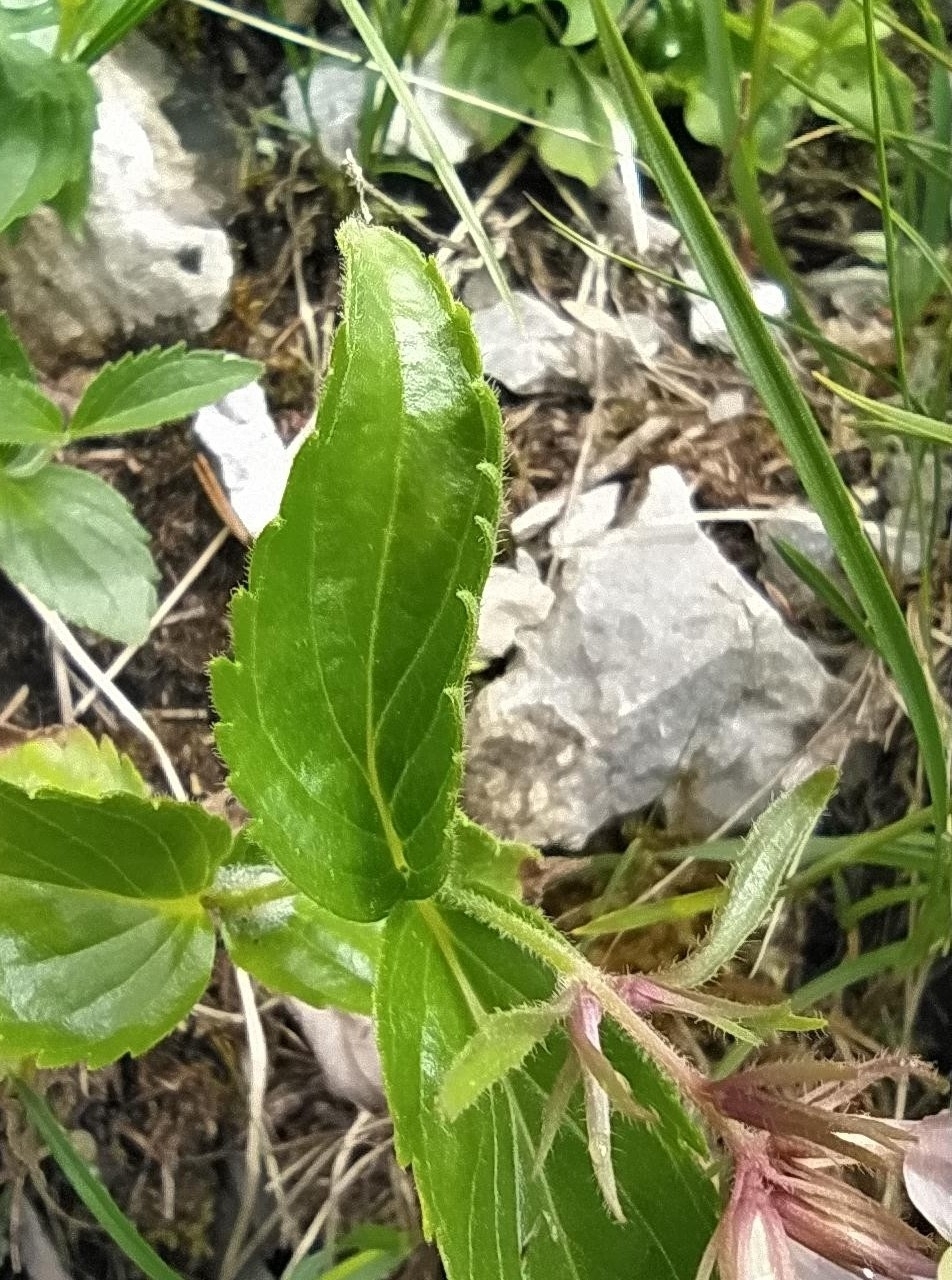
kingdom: Plantae
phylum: Tracheophyta
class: Magnoliopsida
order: Lamiales
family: Plantaginaceae
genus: Paederota
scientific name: Paederota lutea
